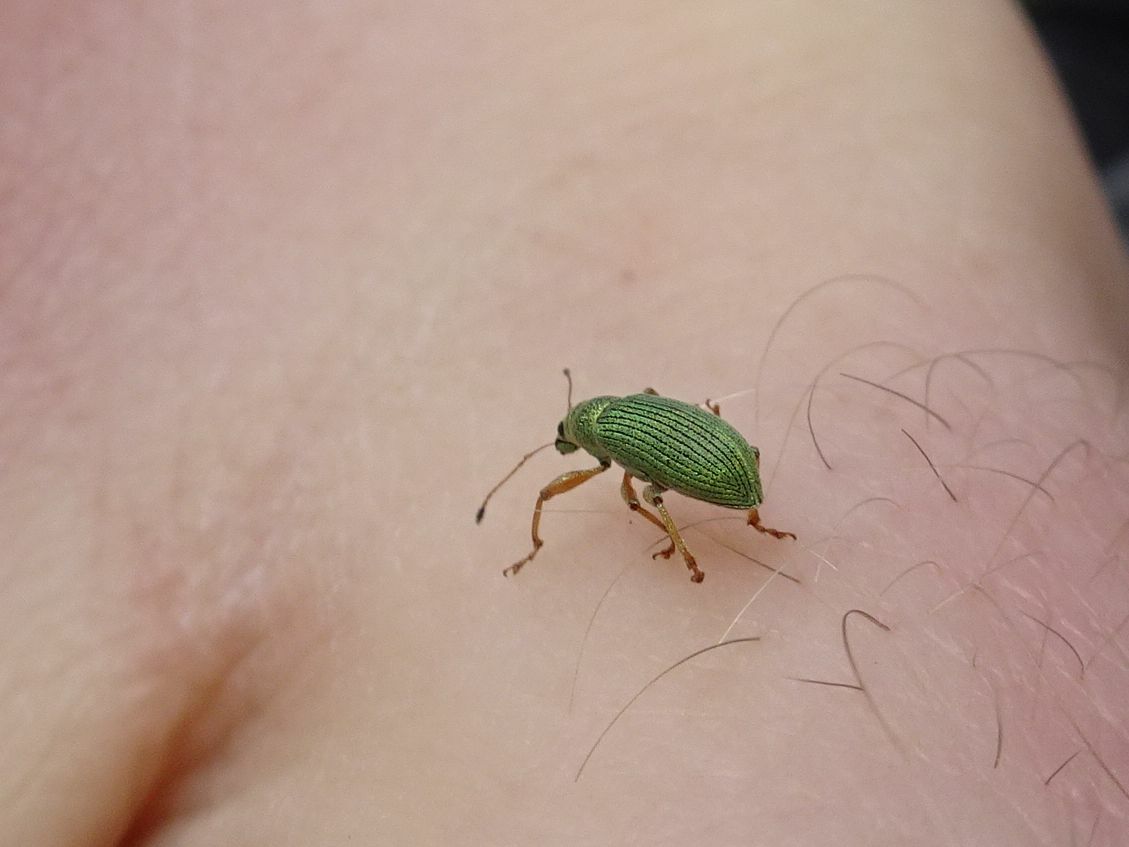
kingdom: Animalia
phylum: Arthropoda
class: Insecta
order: Coleoptera
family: Curculionidae
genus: Polydrusus
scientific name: Polydrusus formosus
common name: Weevil
